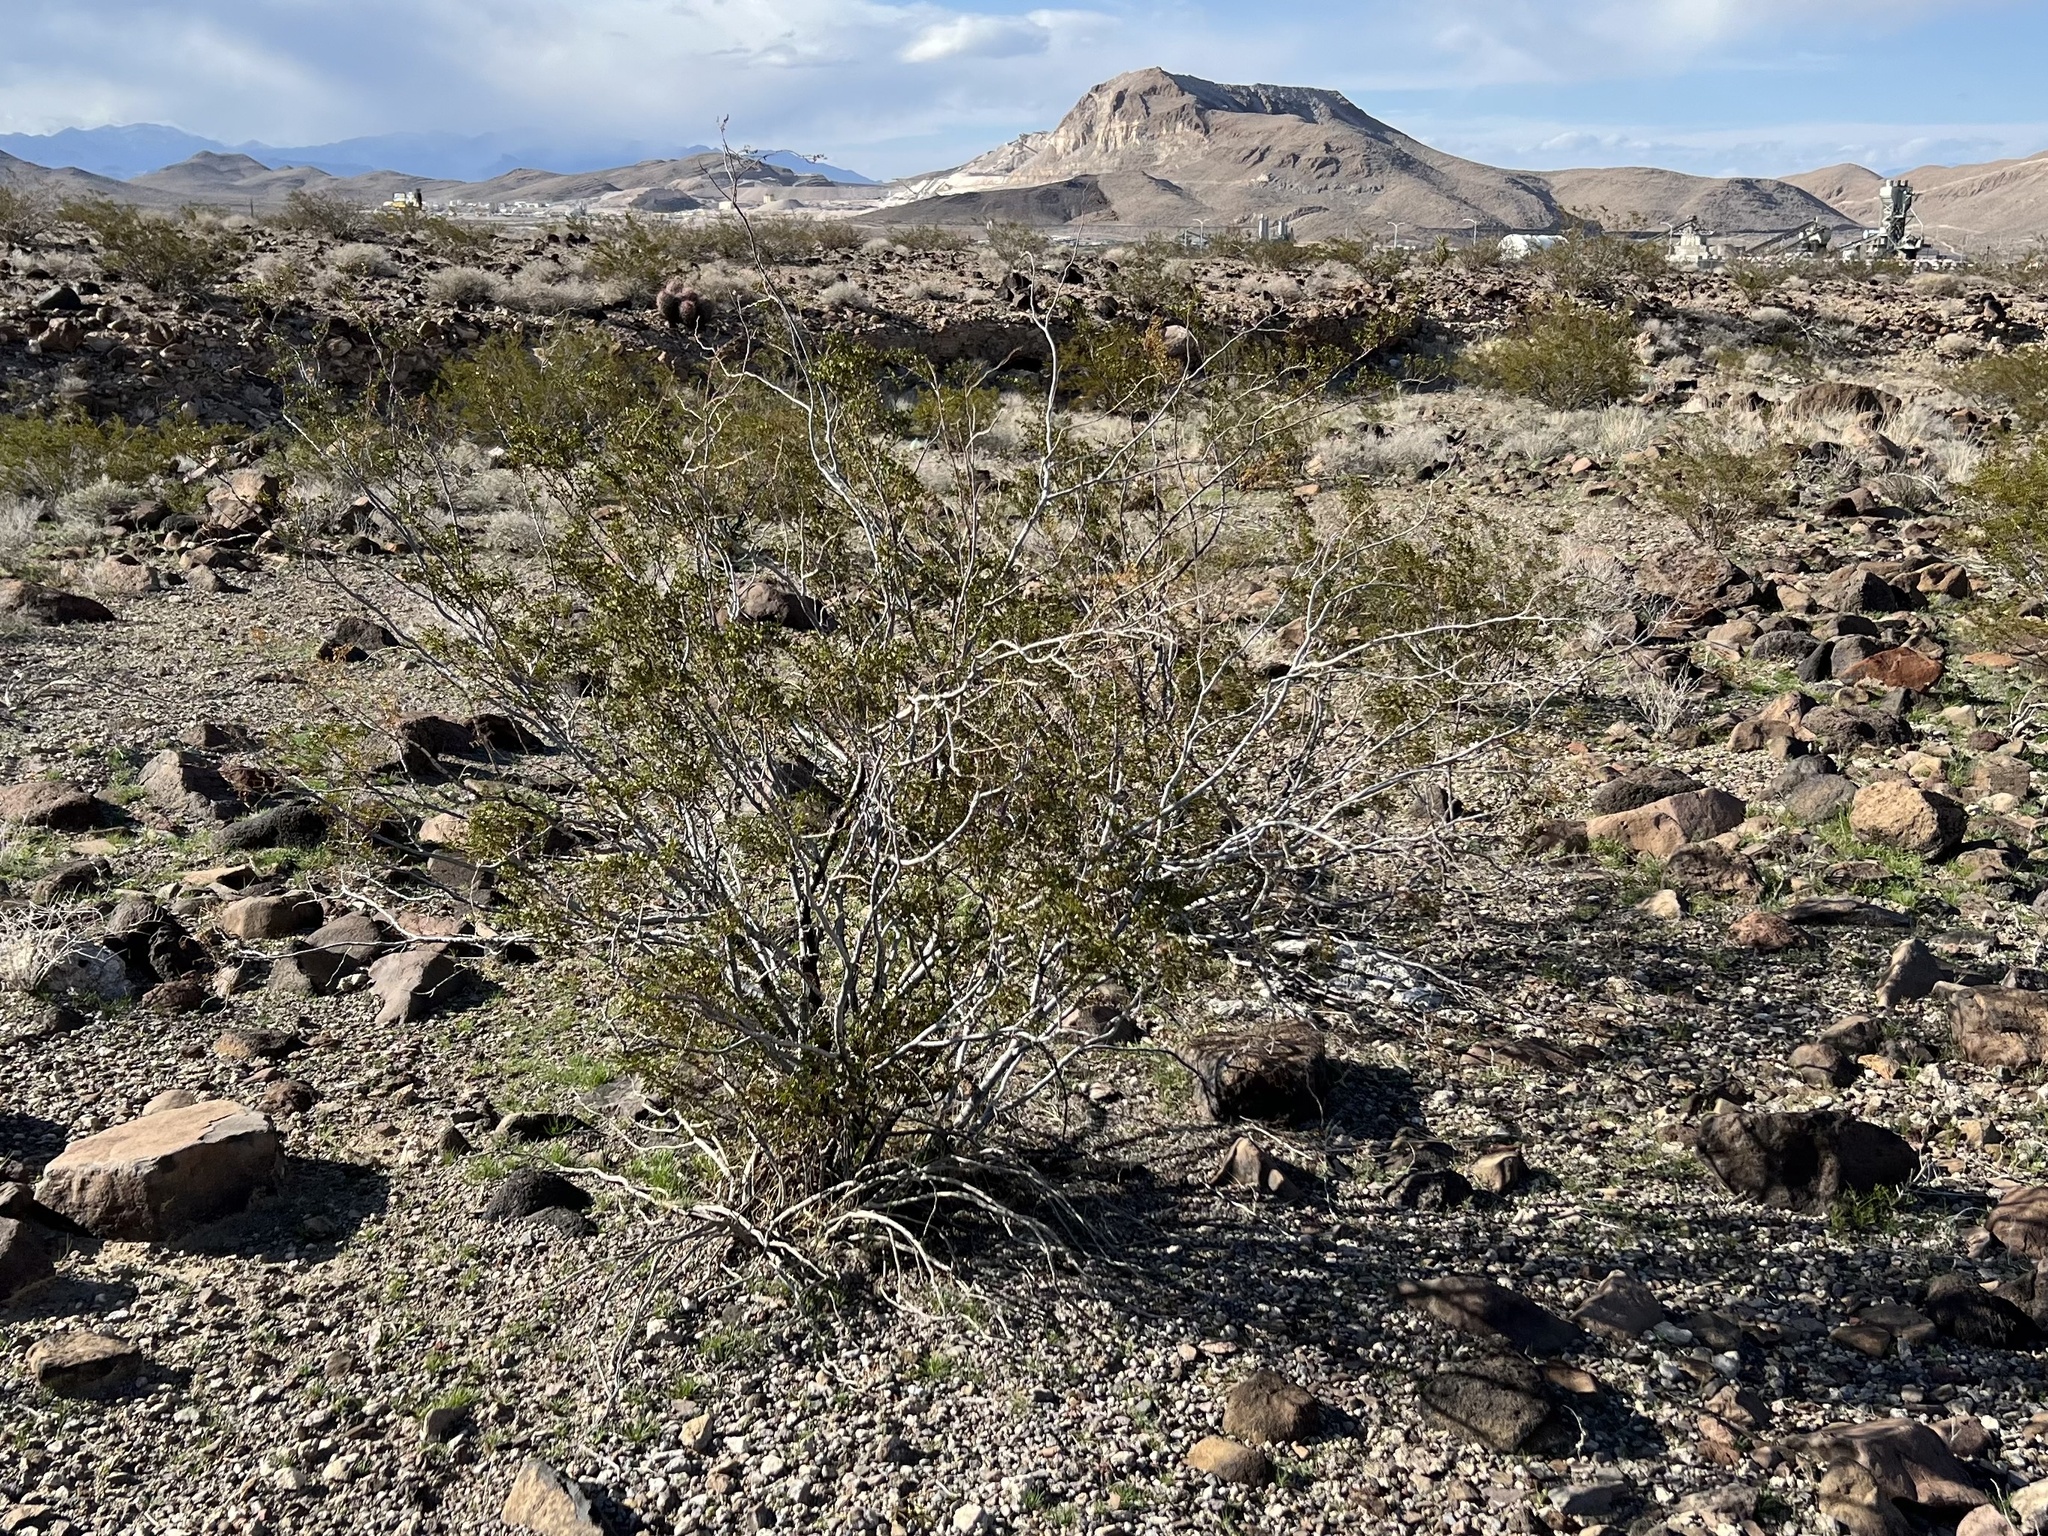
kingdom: Plantae
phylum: Tracheophyta
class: Magnoliopsida
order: Zygophyllales
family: Zygophyllaceae
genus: Larrea
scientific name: Larrea tridentata
